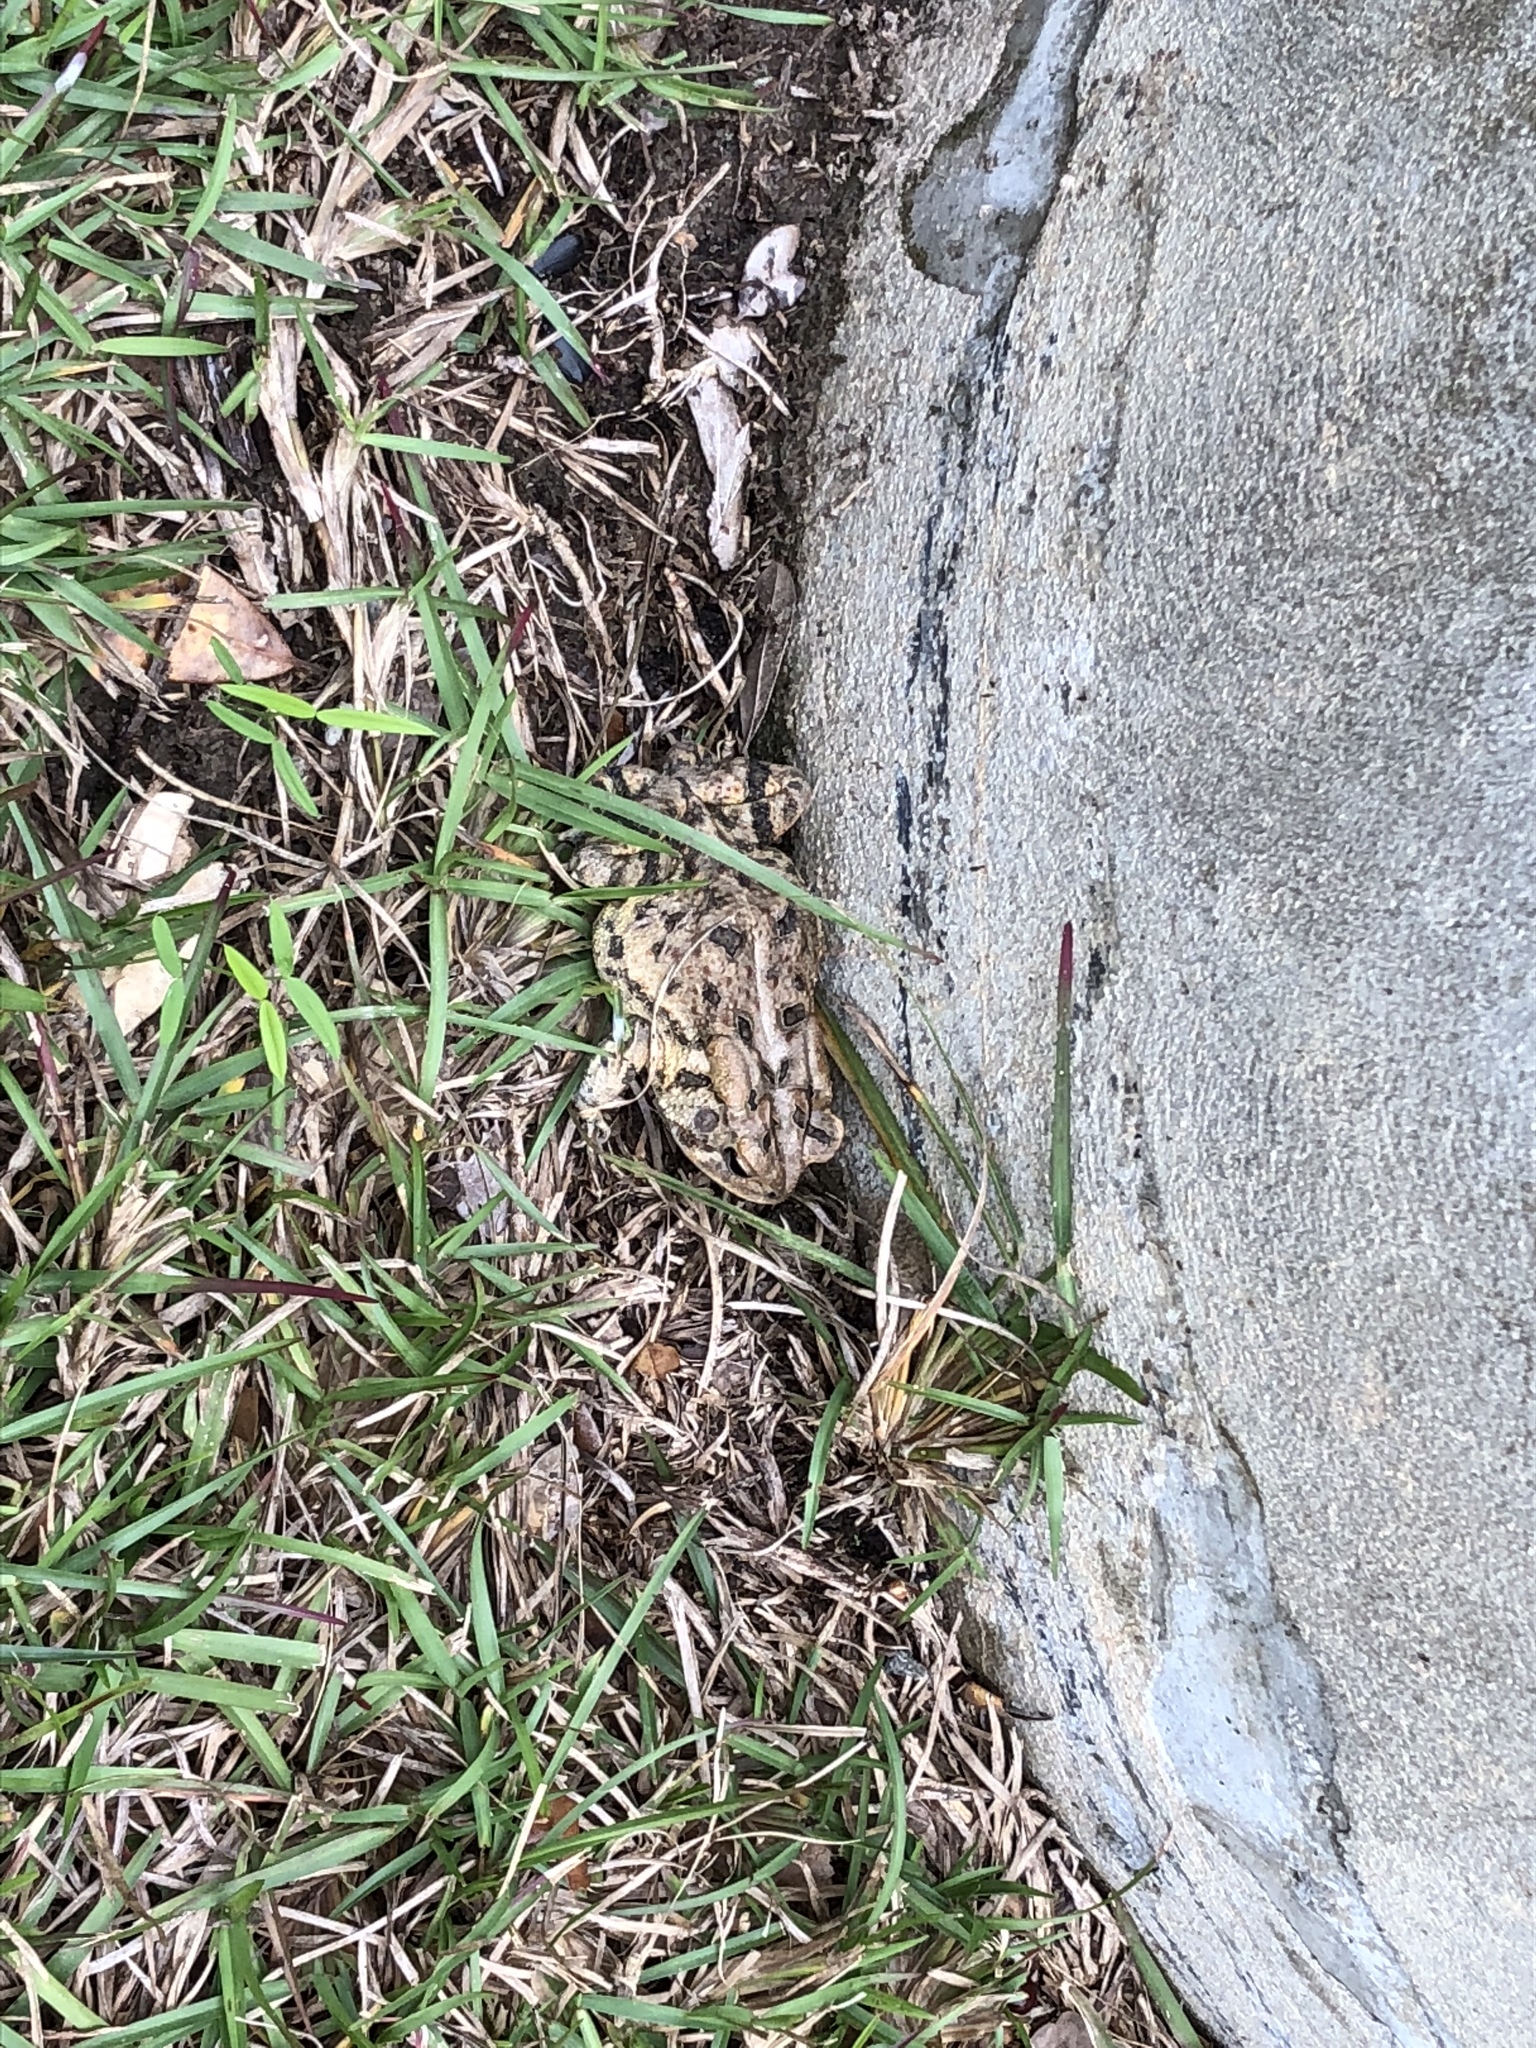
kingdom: Animalia
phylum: Chordata
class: Amphibia
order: Anura
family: Bufonidae
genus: Anaxyrus
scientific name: Anaxyrus terrestris
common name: Southern toad
